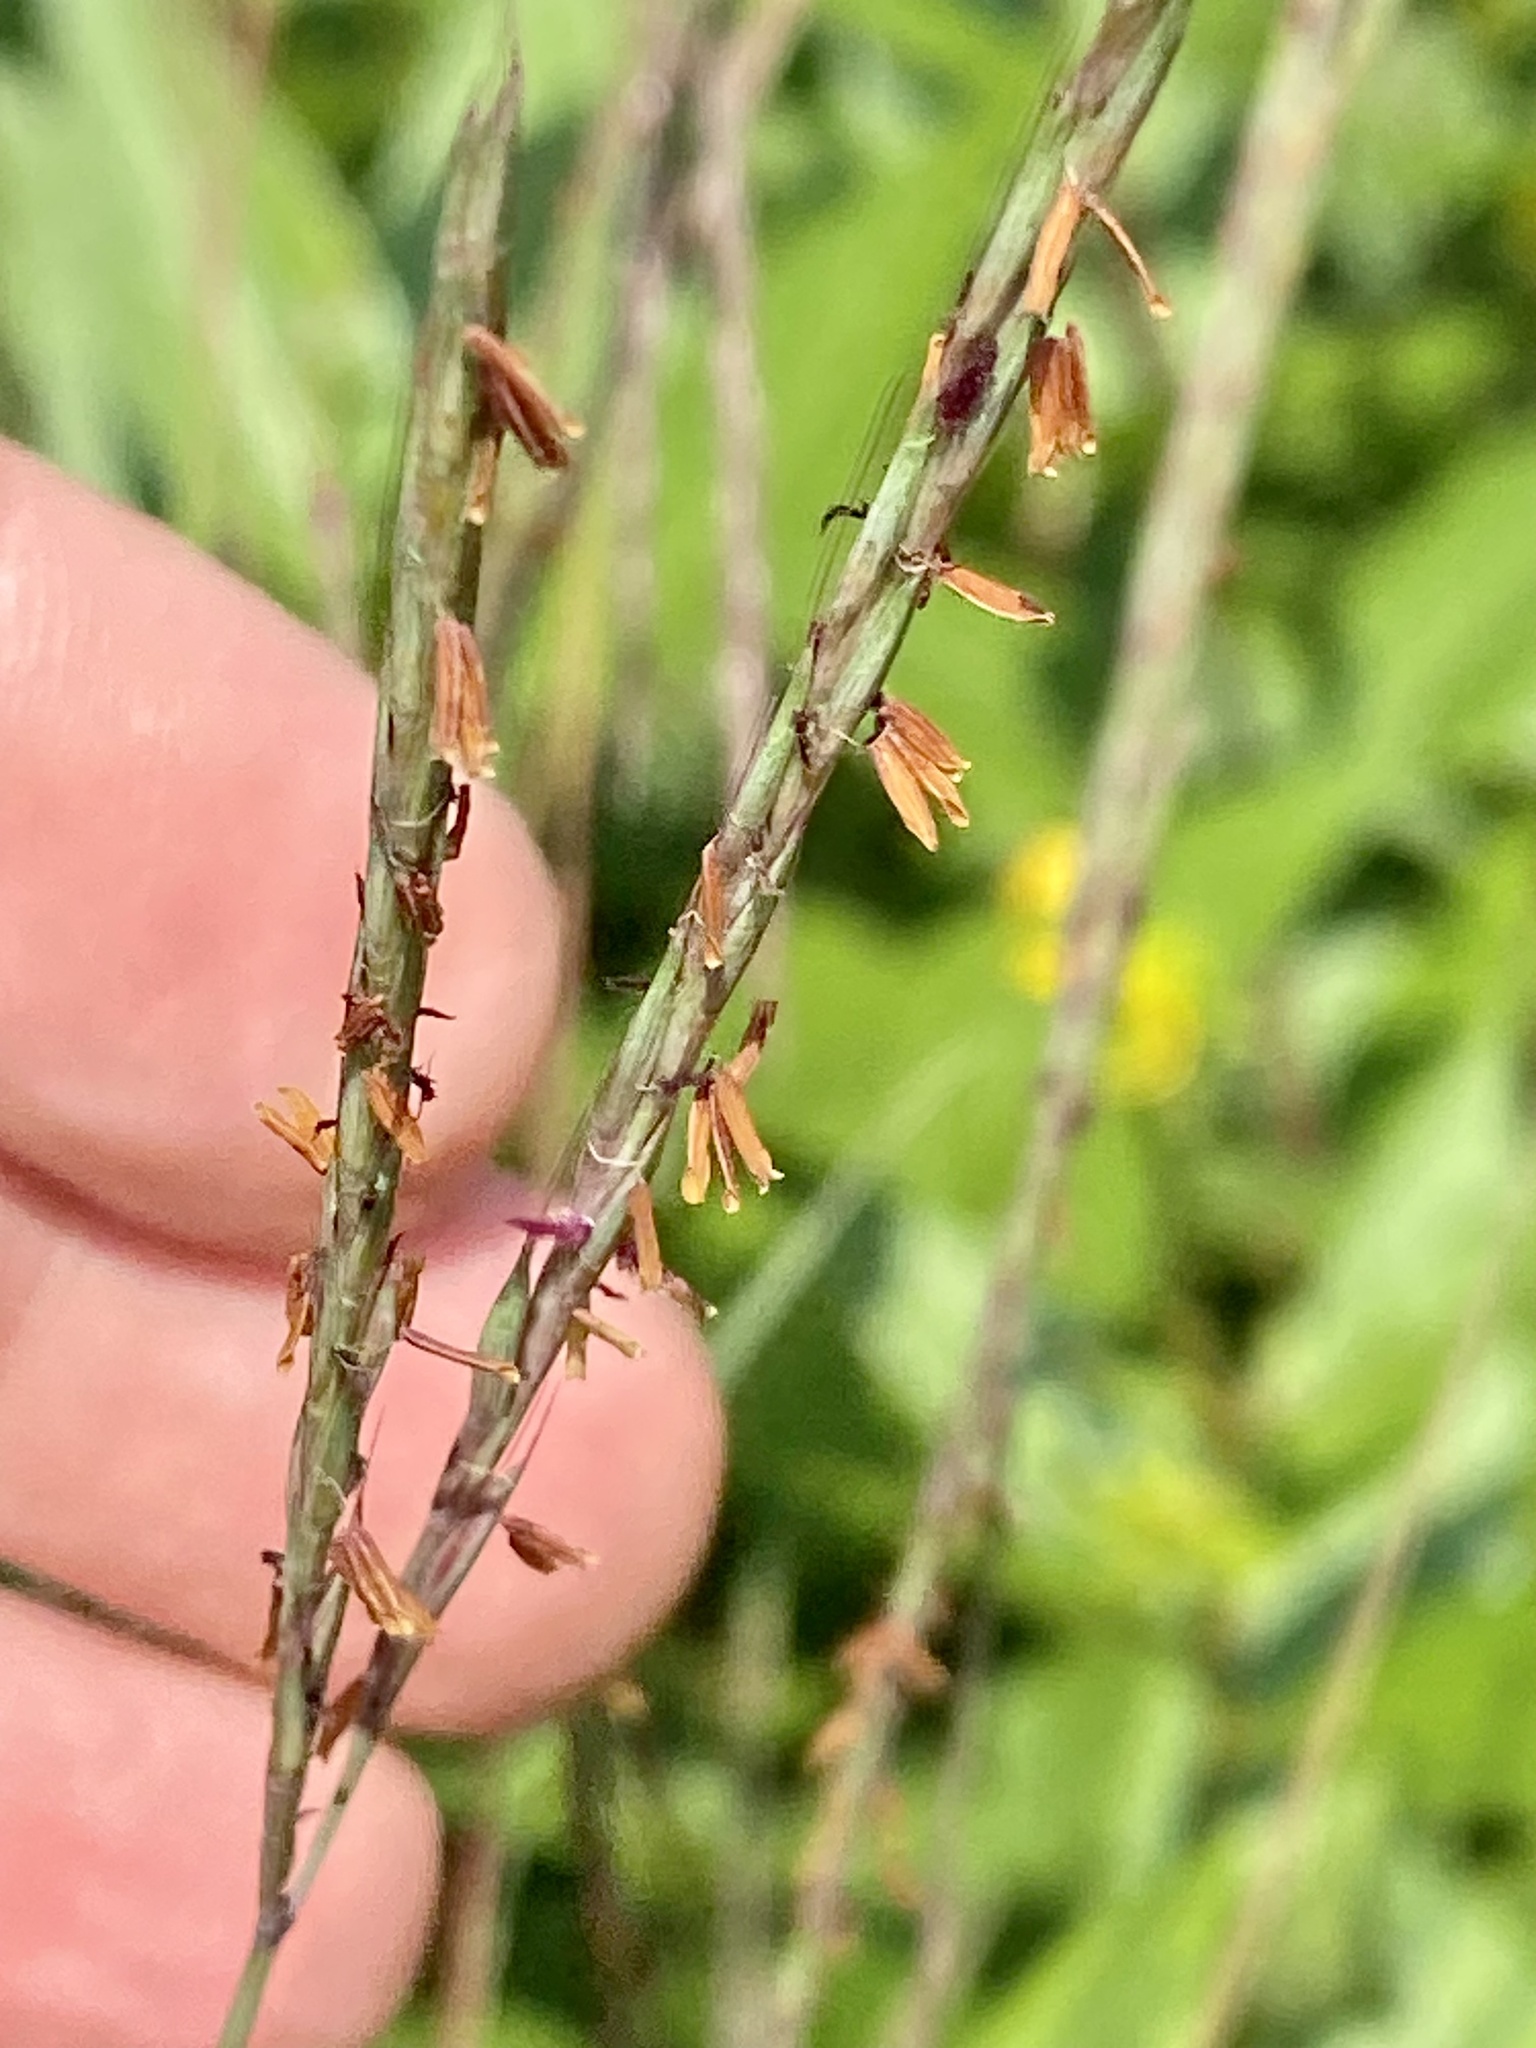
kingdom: Plantae
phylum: Tracheophyta
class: Liliopsida
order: Poales
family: Poaceae
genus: Andropogon
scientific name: Andropogon gerardi
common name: Big bluestem
